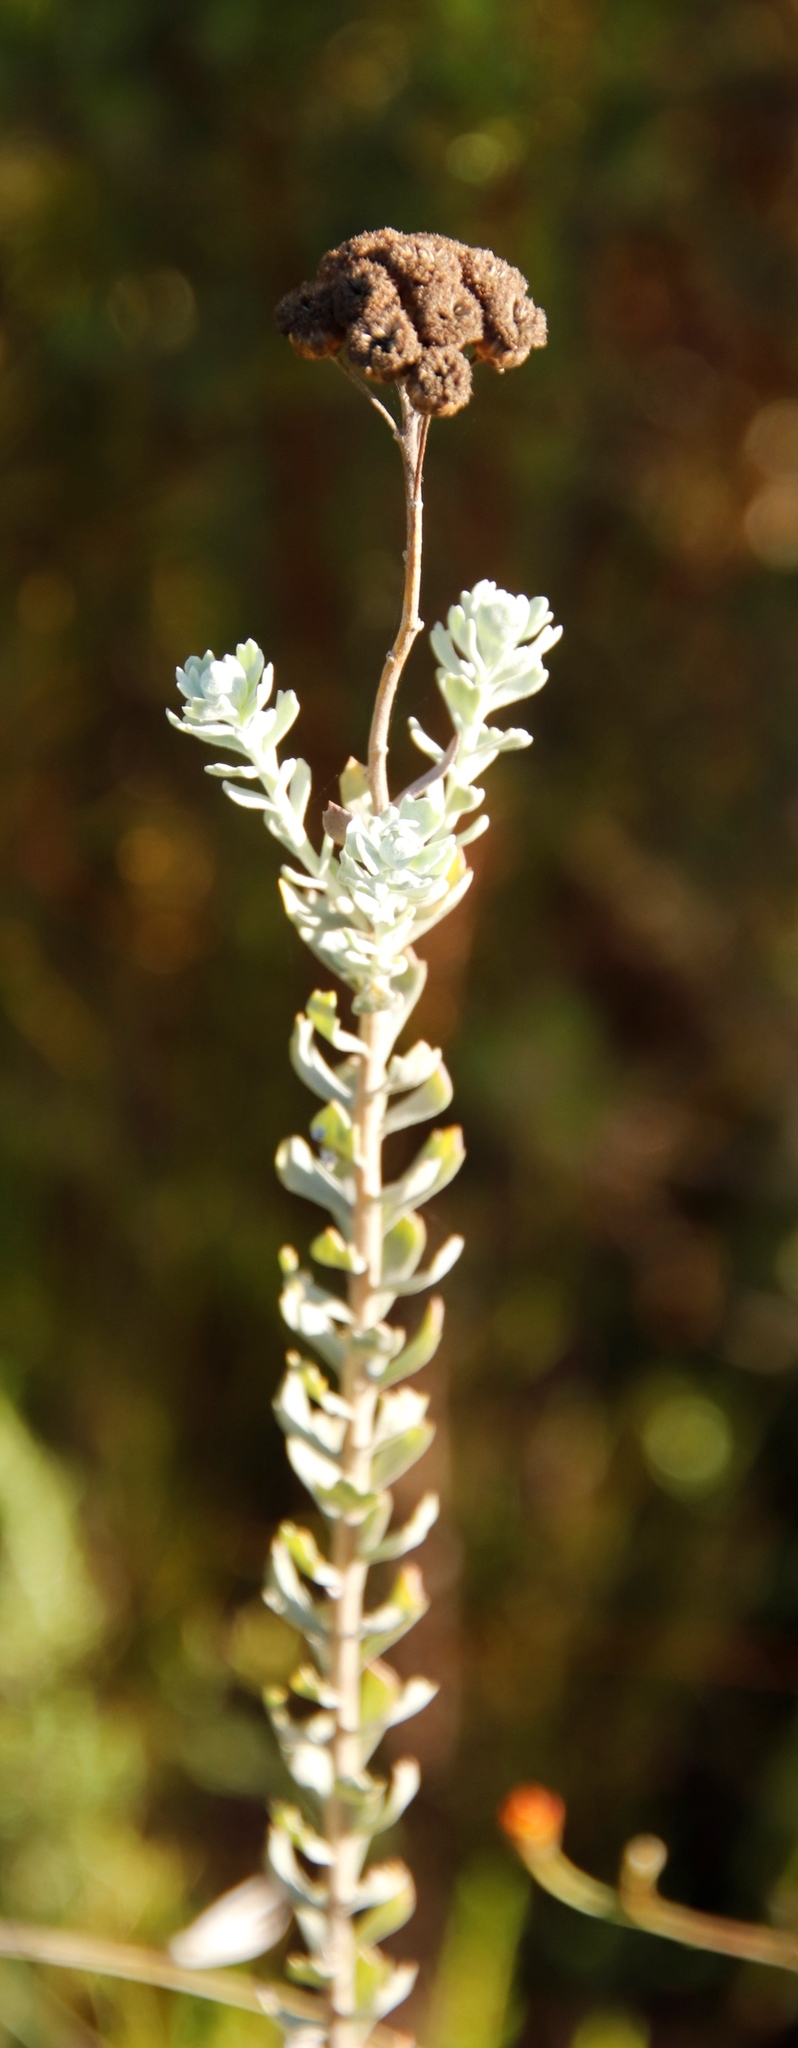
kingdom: Plantae
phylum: Tracheophyta
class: Magnoliopsida
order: Asterales
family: Asteraceae
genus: Athanasia
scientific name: Athanasia trifurcata
